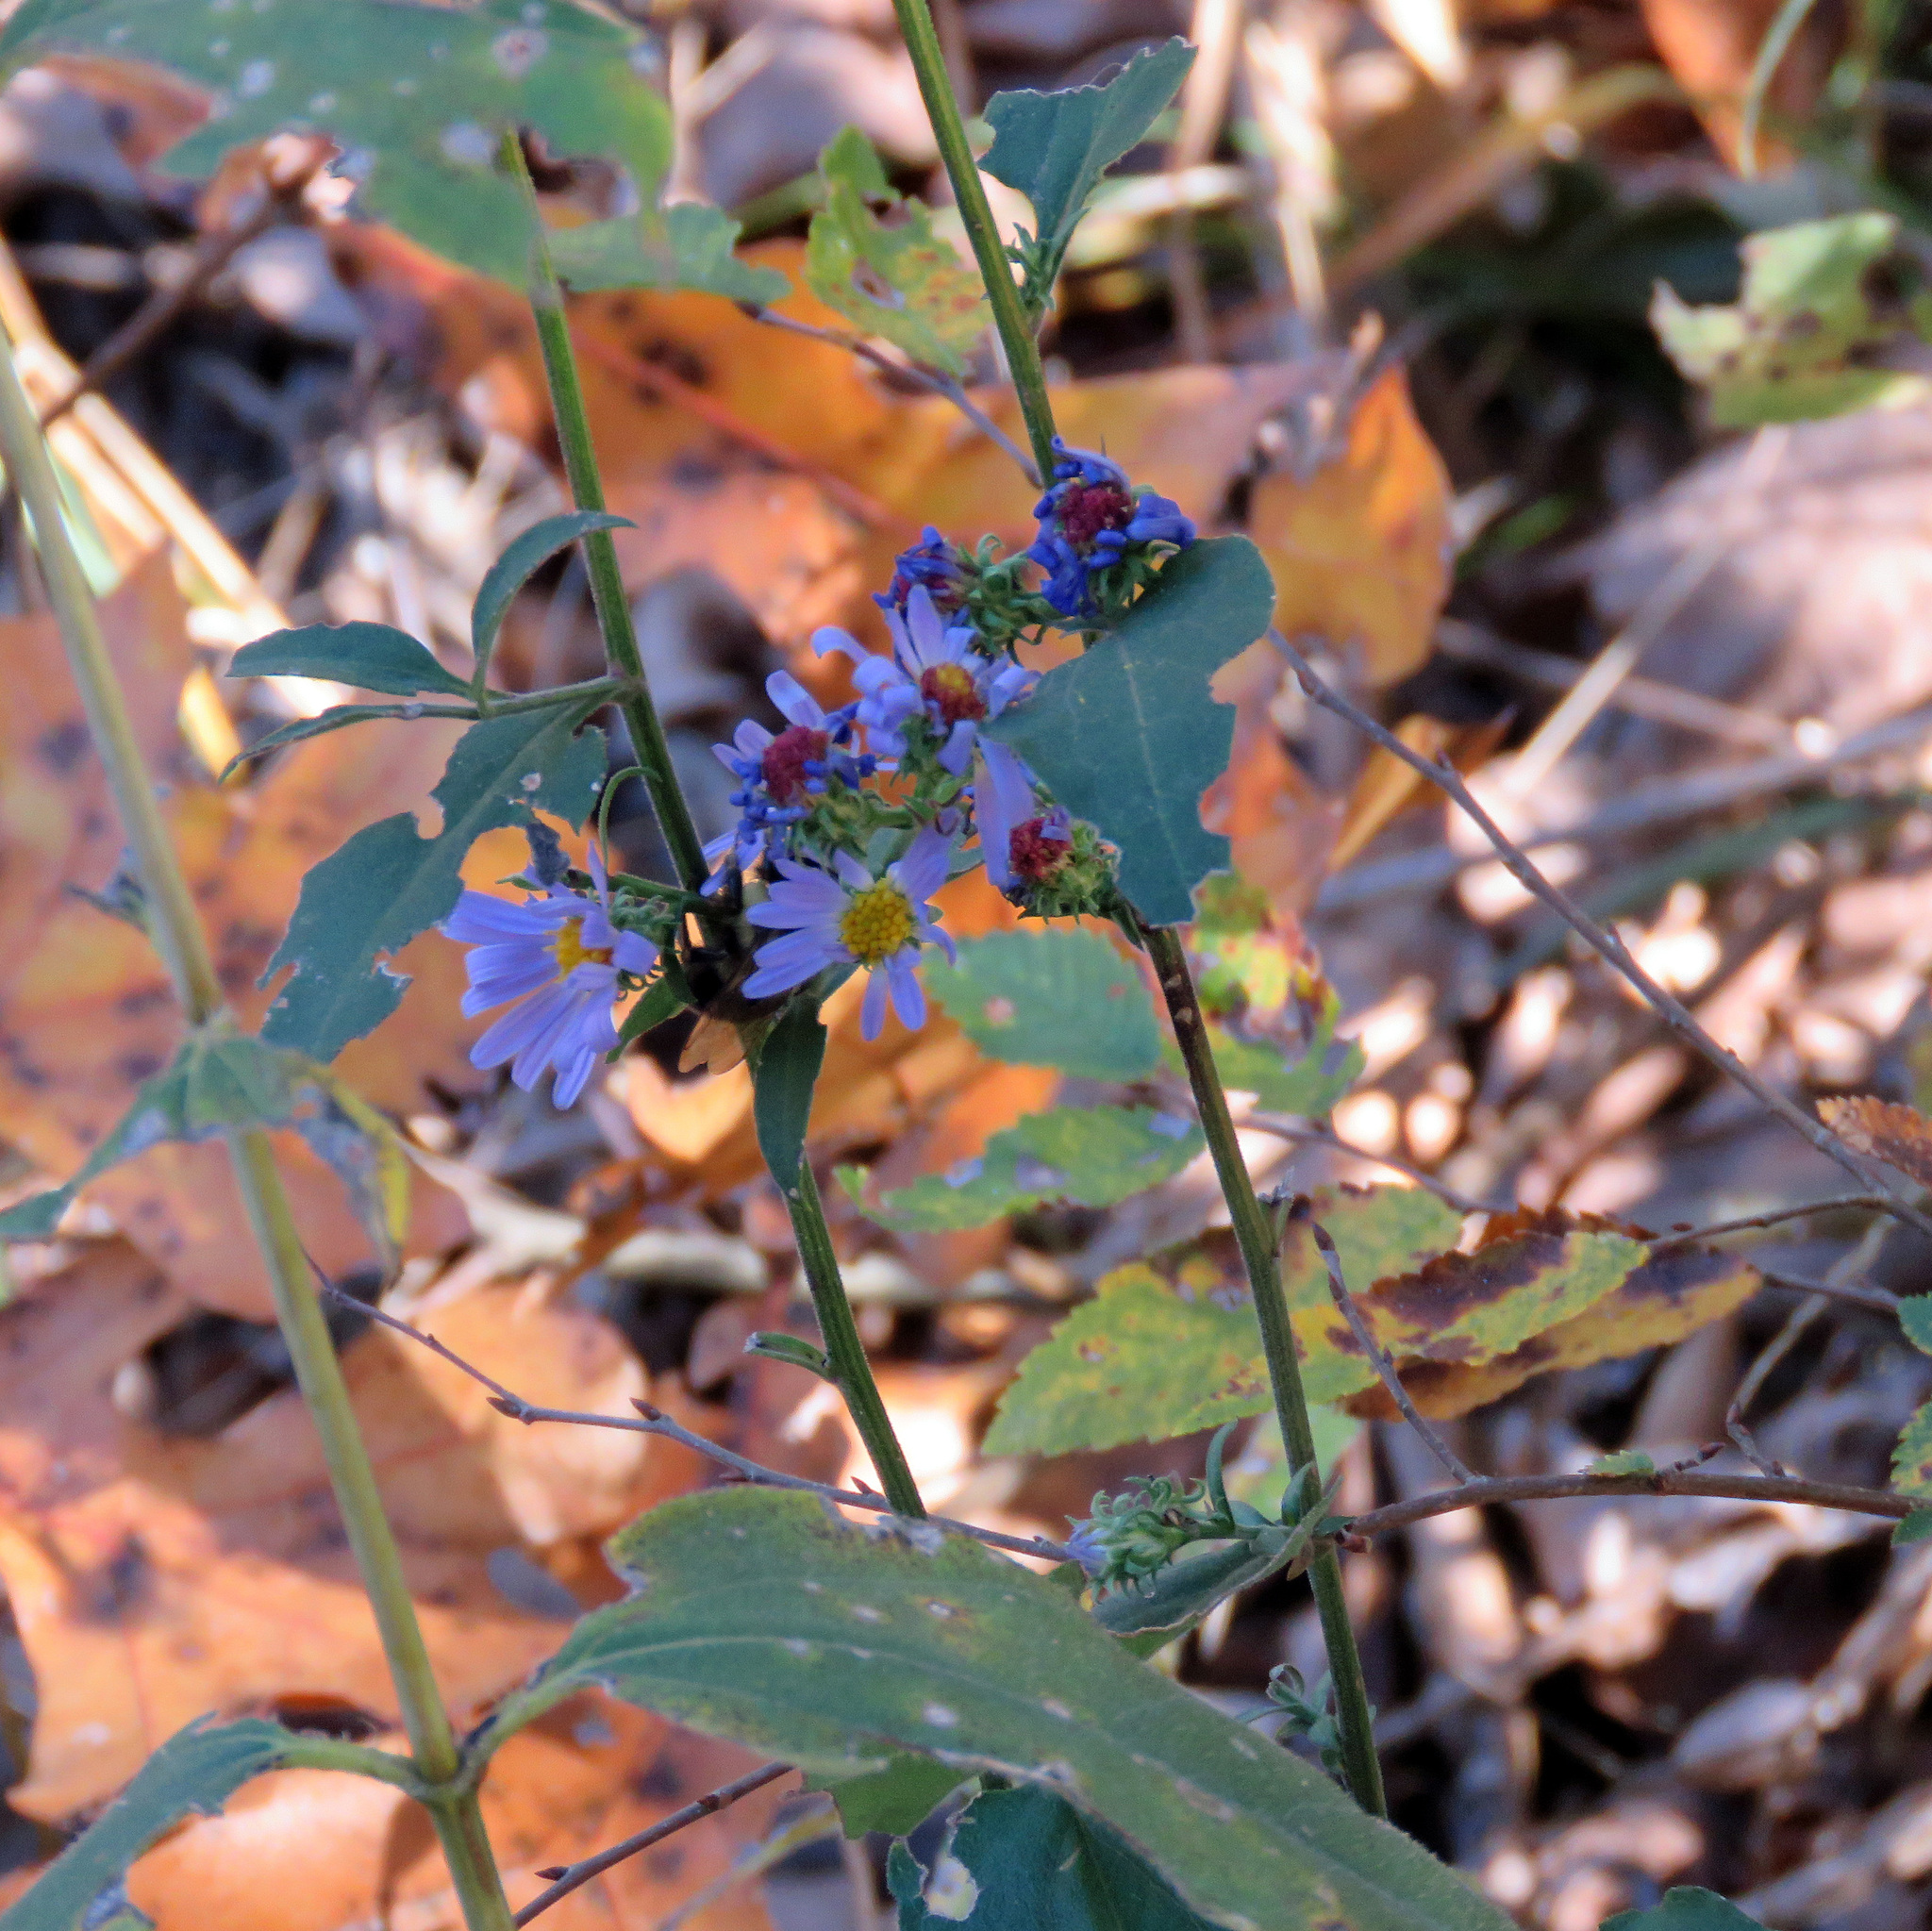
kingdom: Plantae
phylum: Tracheophyta
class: Magnoliopsida
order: Asterales
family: Asteraceae
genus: Symphyotrichum
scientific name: Symphyotrichum anomalum
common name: Many-ray aster
